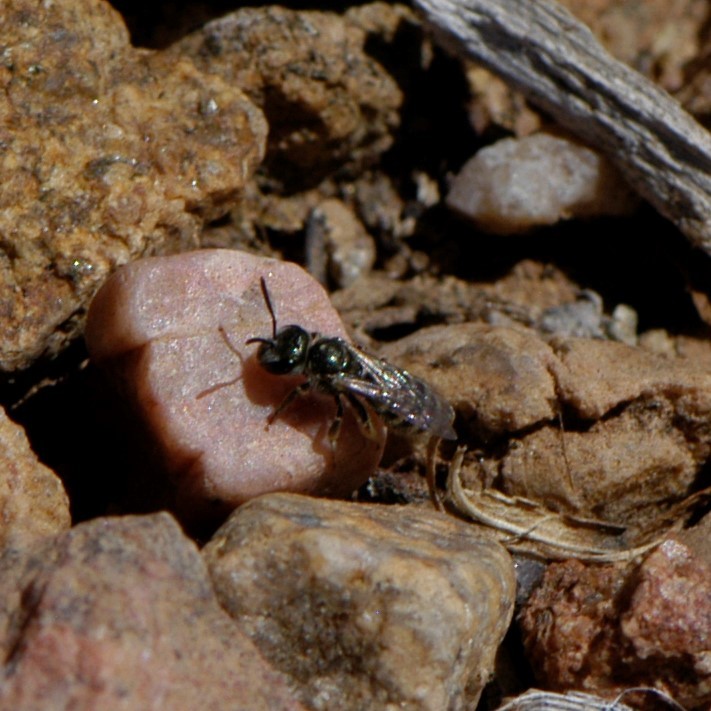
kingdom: Animalia
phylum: Arthropoda
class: Insecta
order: Hymenoptera
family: Halictidae
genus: Halictus
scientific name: Halictus tripartitus
